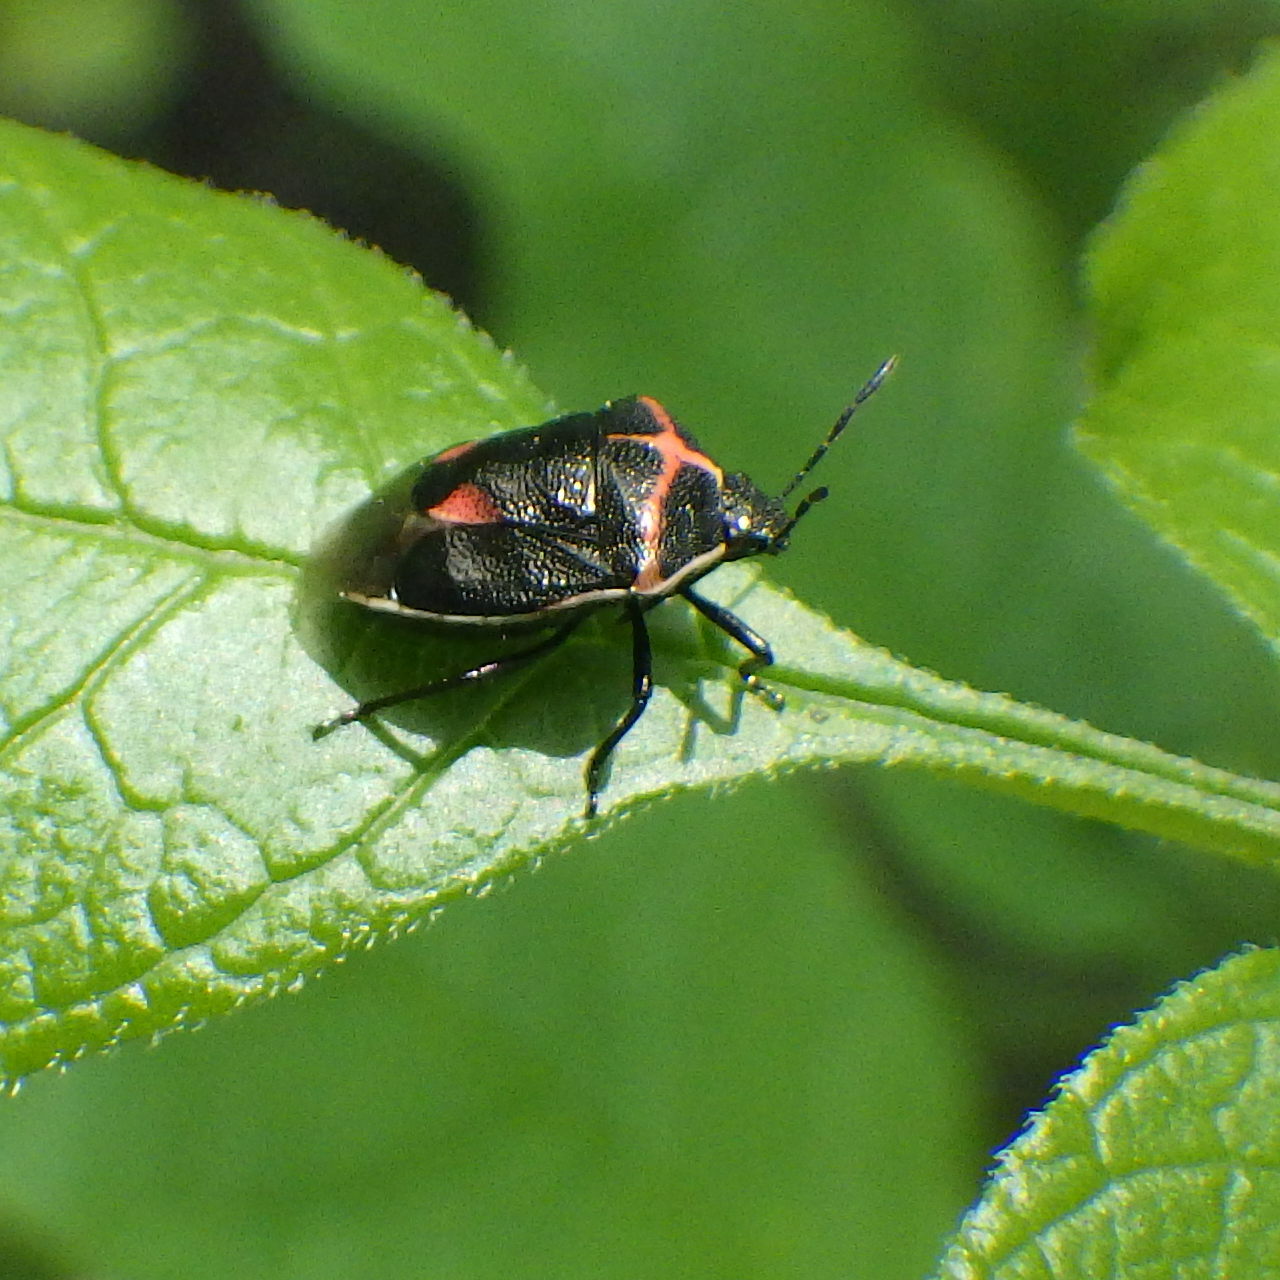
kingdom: Animalia
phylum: Arthropoda
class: Insecta
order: Hemiptera
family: Pentatomidae
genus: Cosmopepla
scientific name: Cosmopepla lintneriana
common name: Twice-stabbed stink bug
